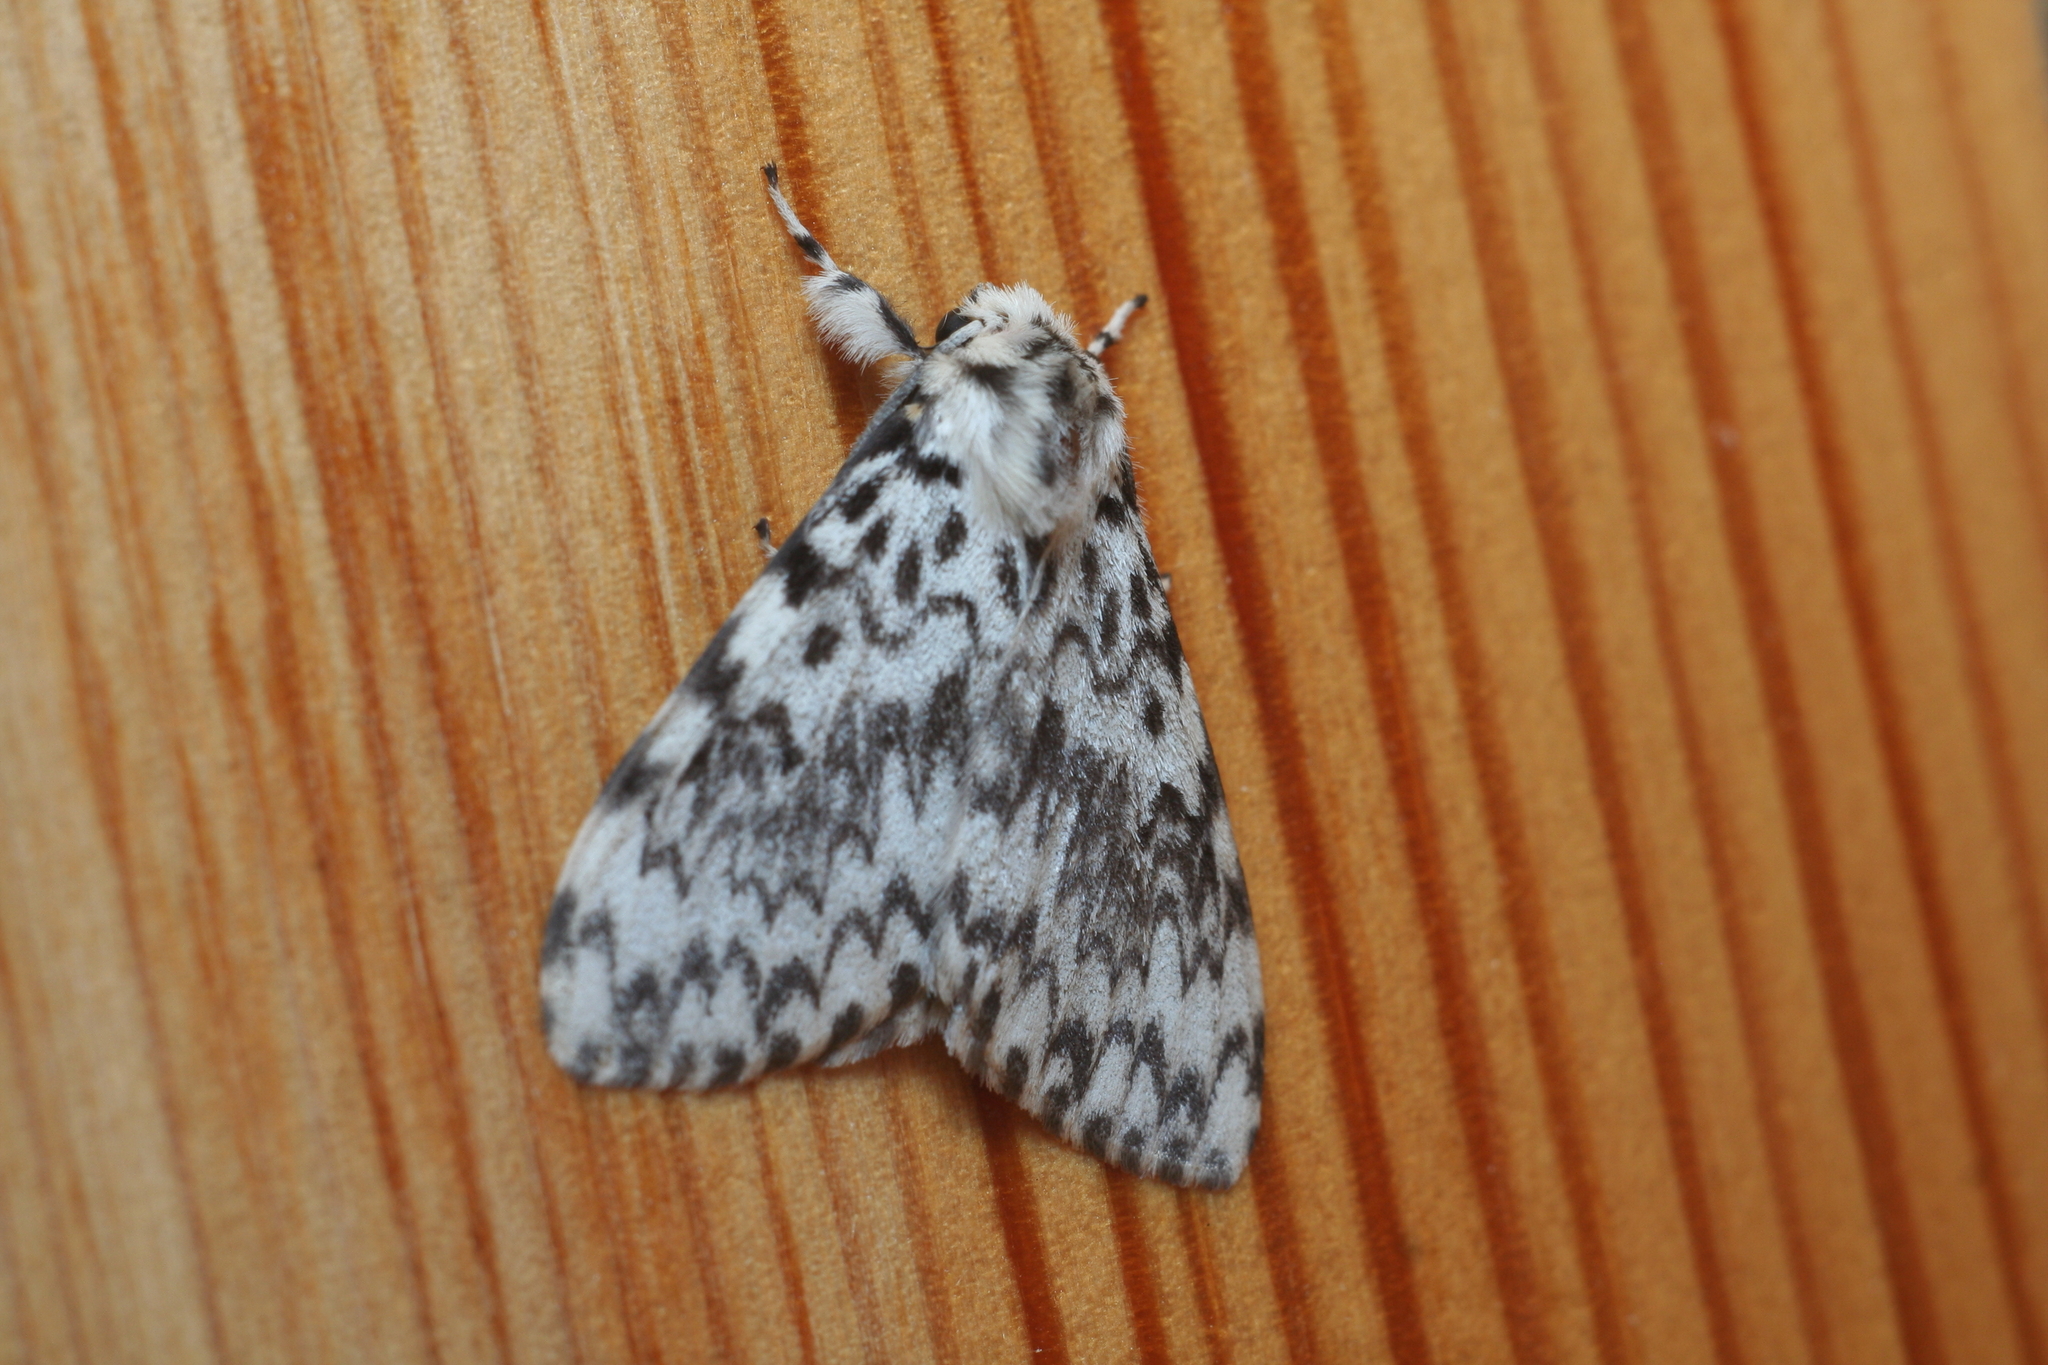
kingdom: Animalia
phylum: Arthropoda
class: Insecta
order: Lepidoptera
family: Erebidae
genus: Lymantria
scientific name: Lymantria monacha
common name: Black arches
